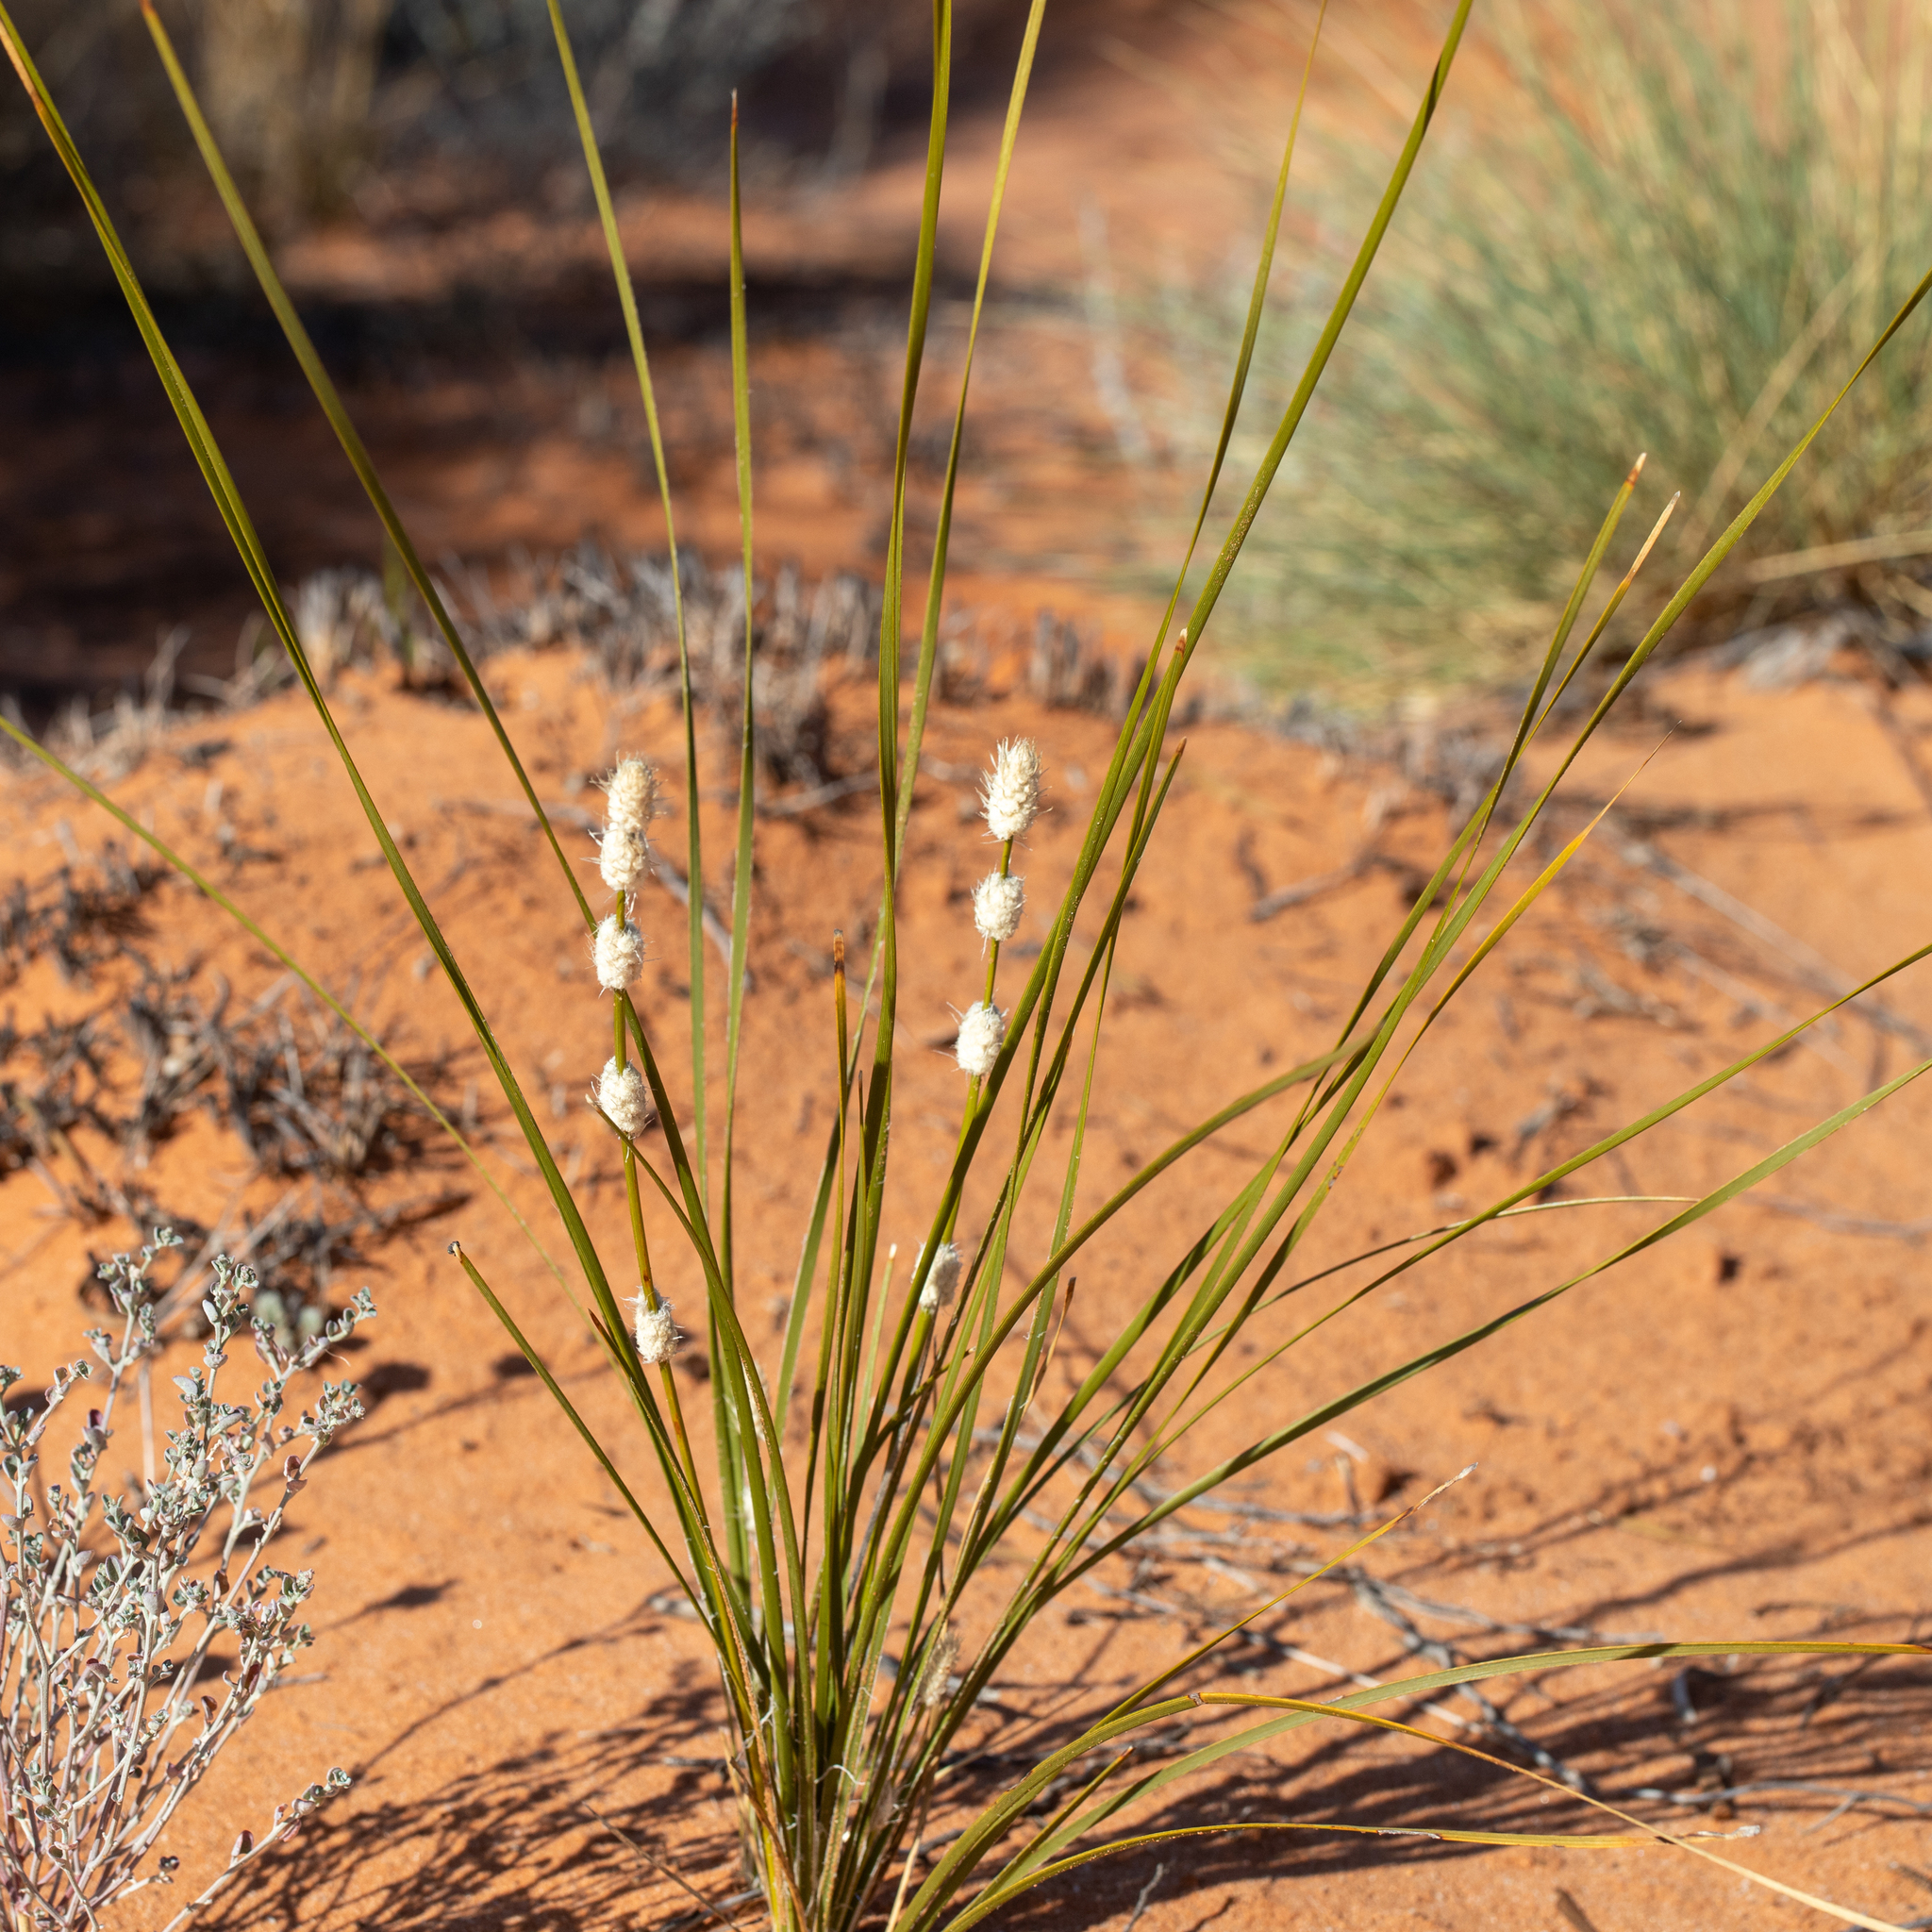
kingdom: Plantae
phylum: Tracheophyta
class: Liliopsida
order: Asparagales
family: Asparagaceae
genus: Lomandra
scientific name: Lomandra leucocephala
